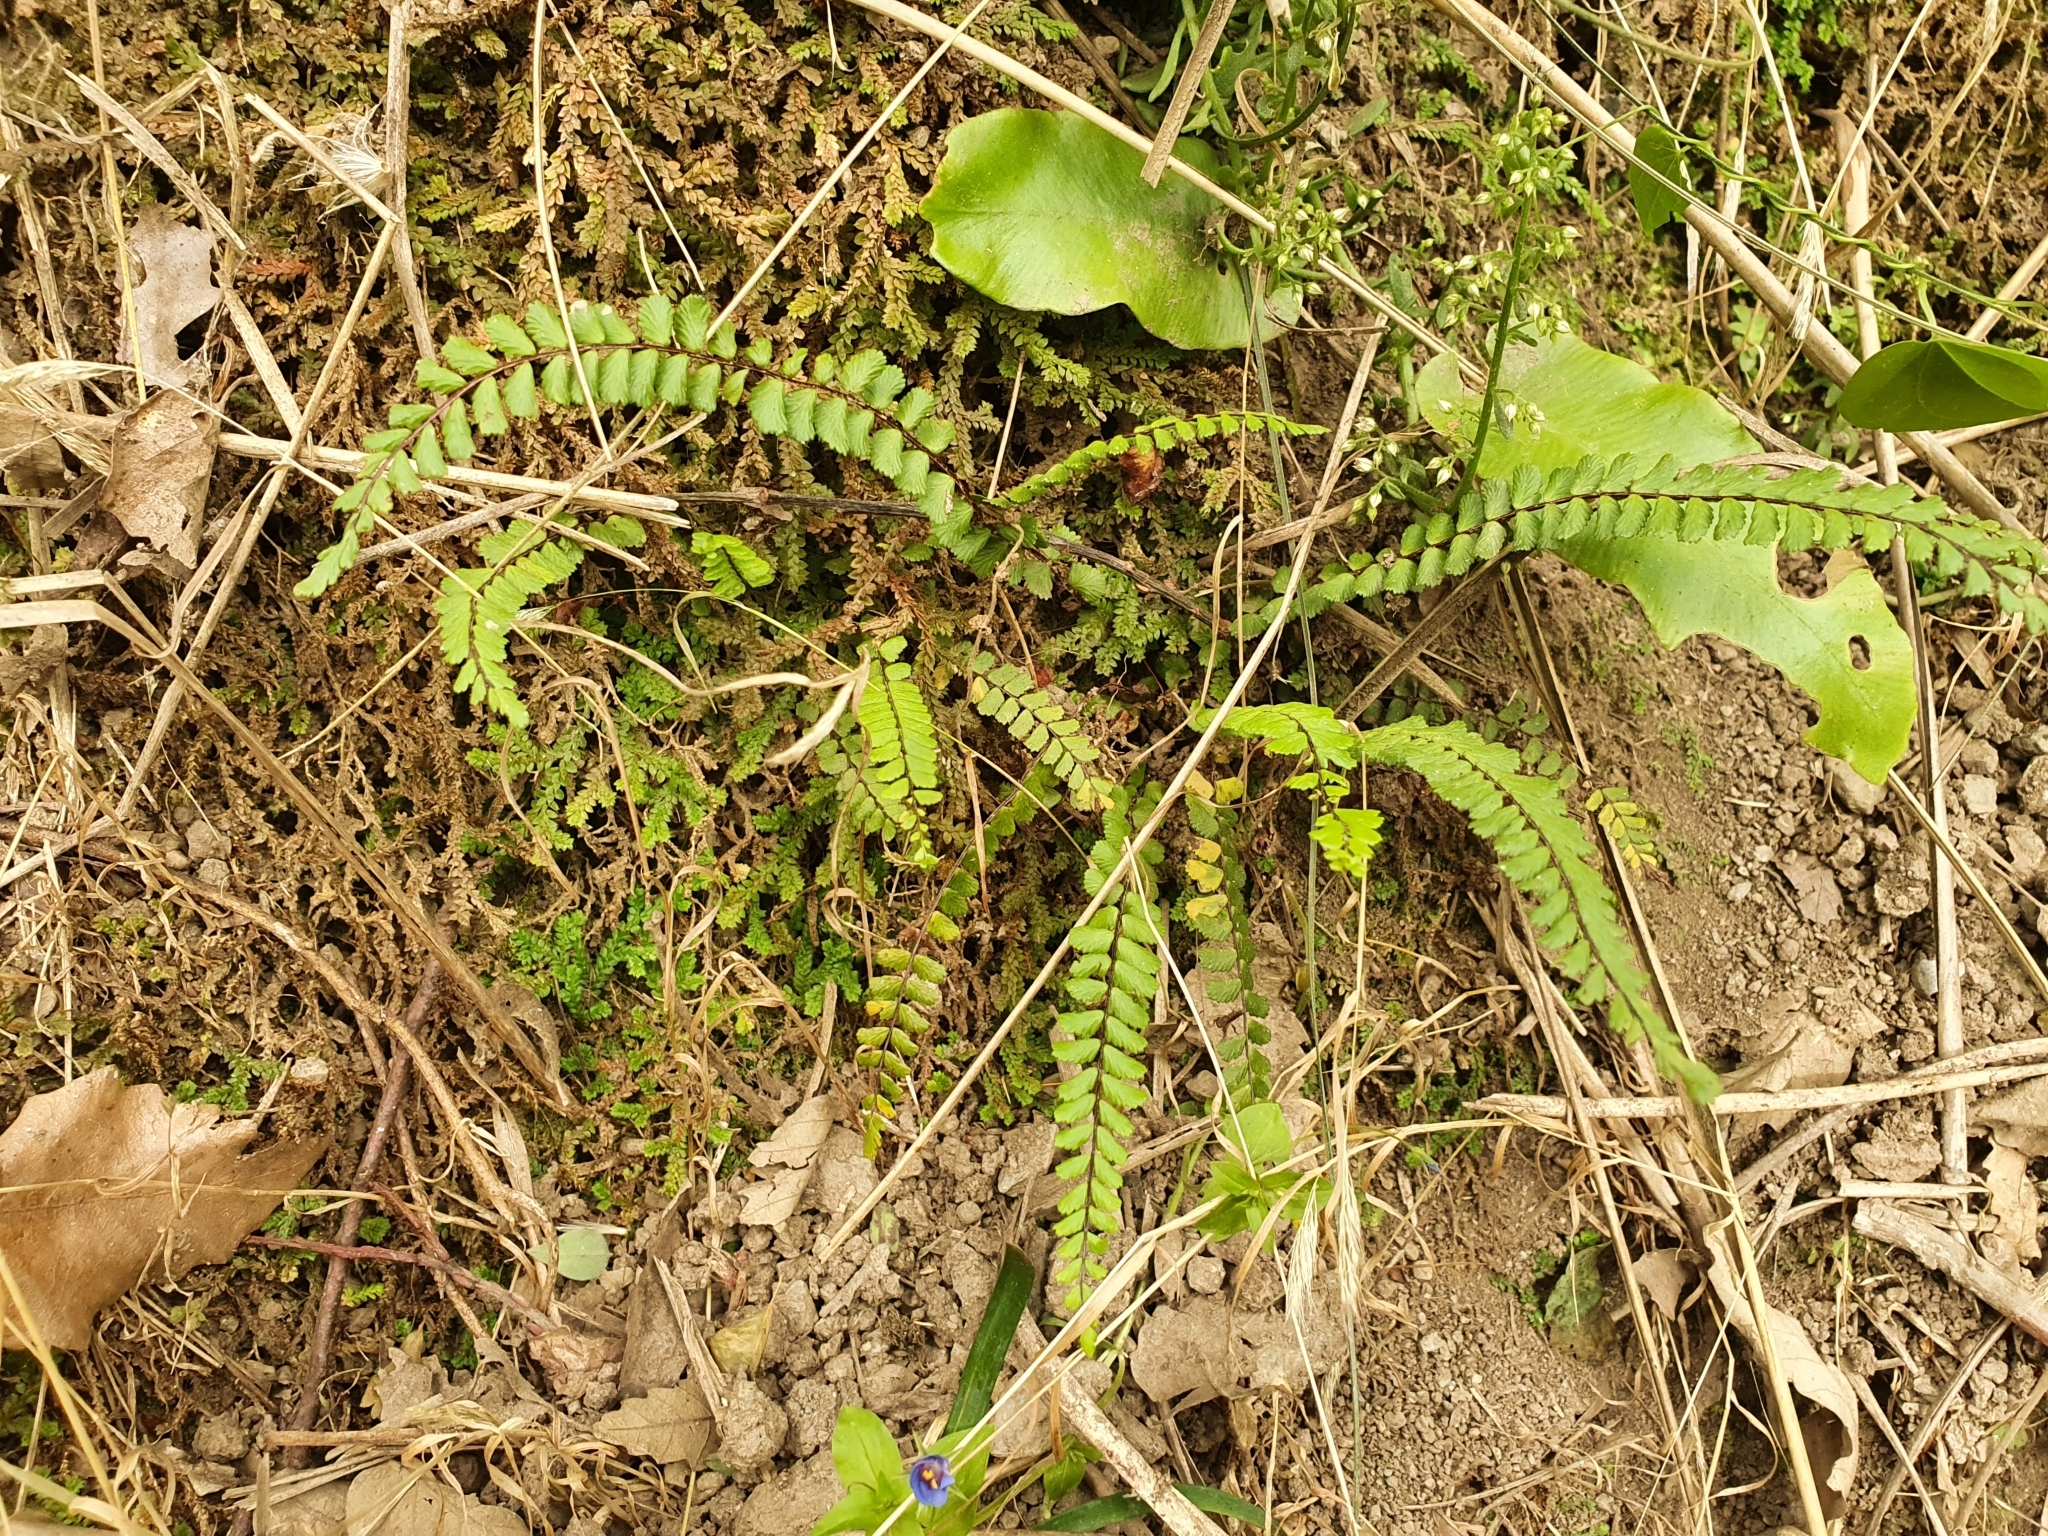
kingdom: Plantae
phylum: Tracheophyta
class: Polypodiopsida
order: Polypodiales
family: Aspleniaceae
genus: Asplenium
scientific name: Asplenium trichomanes
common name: Maidenhair spleenwort
